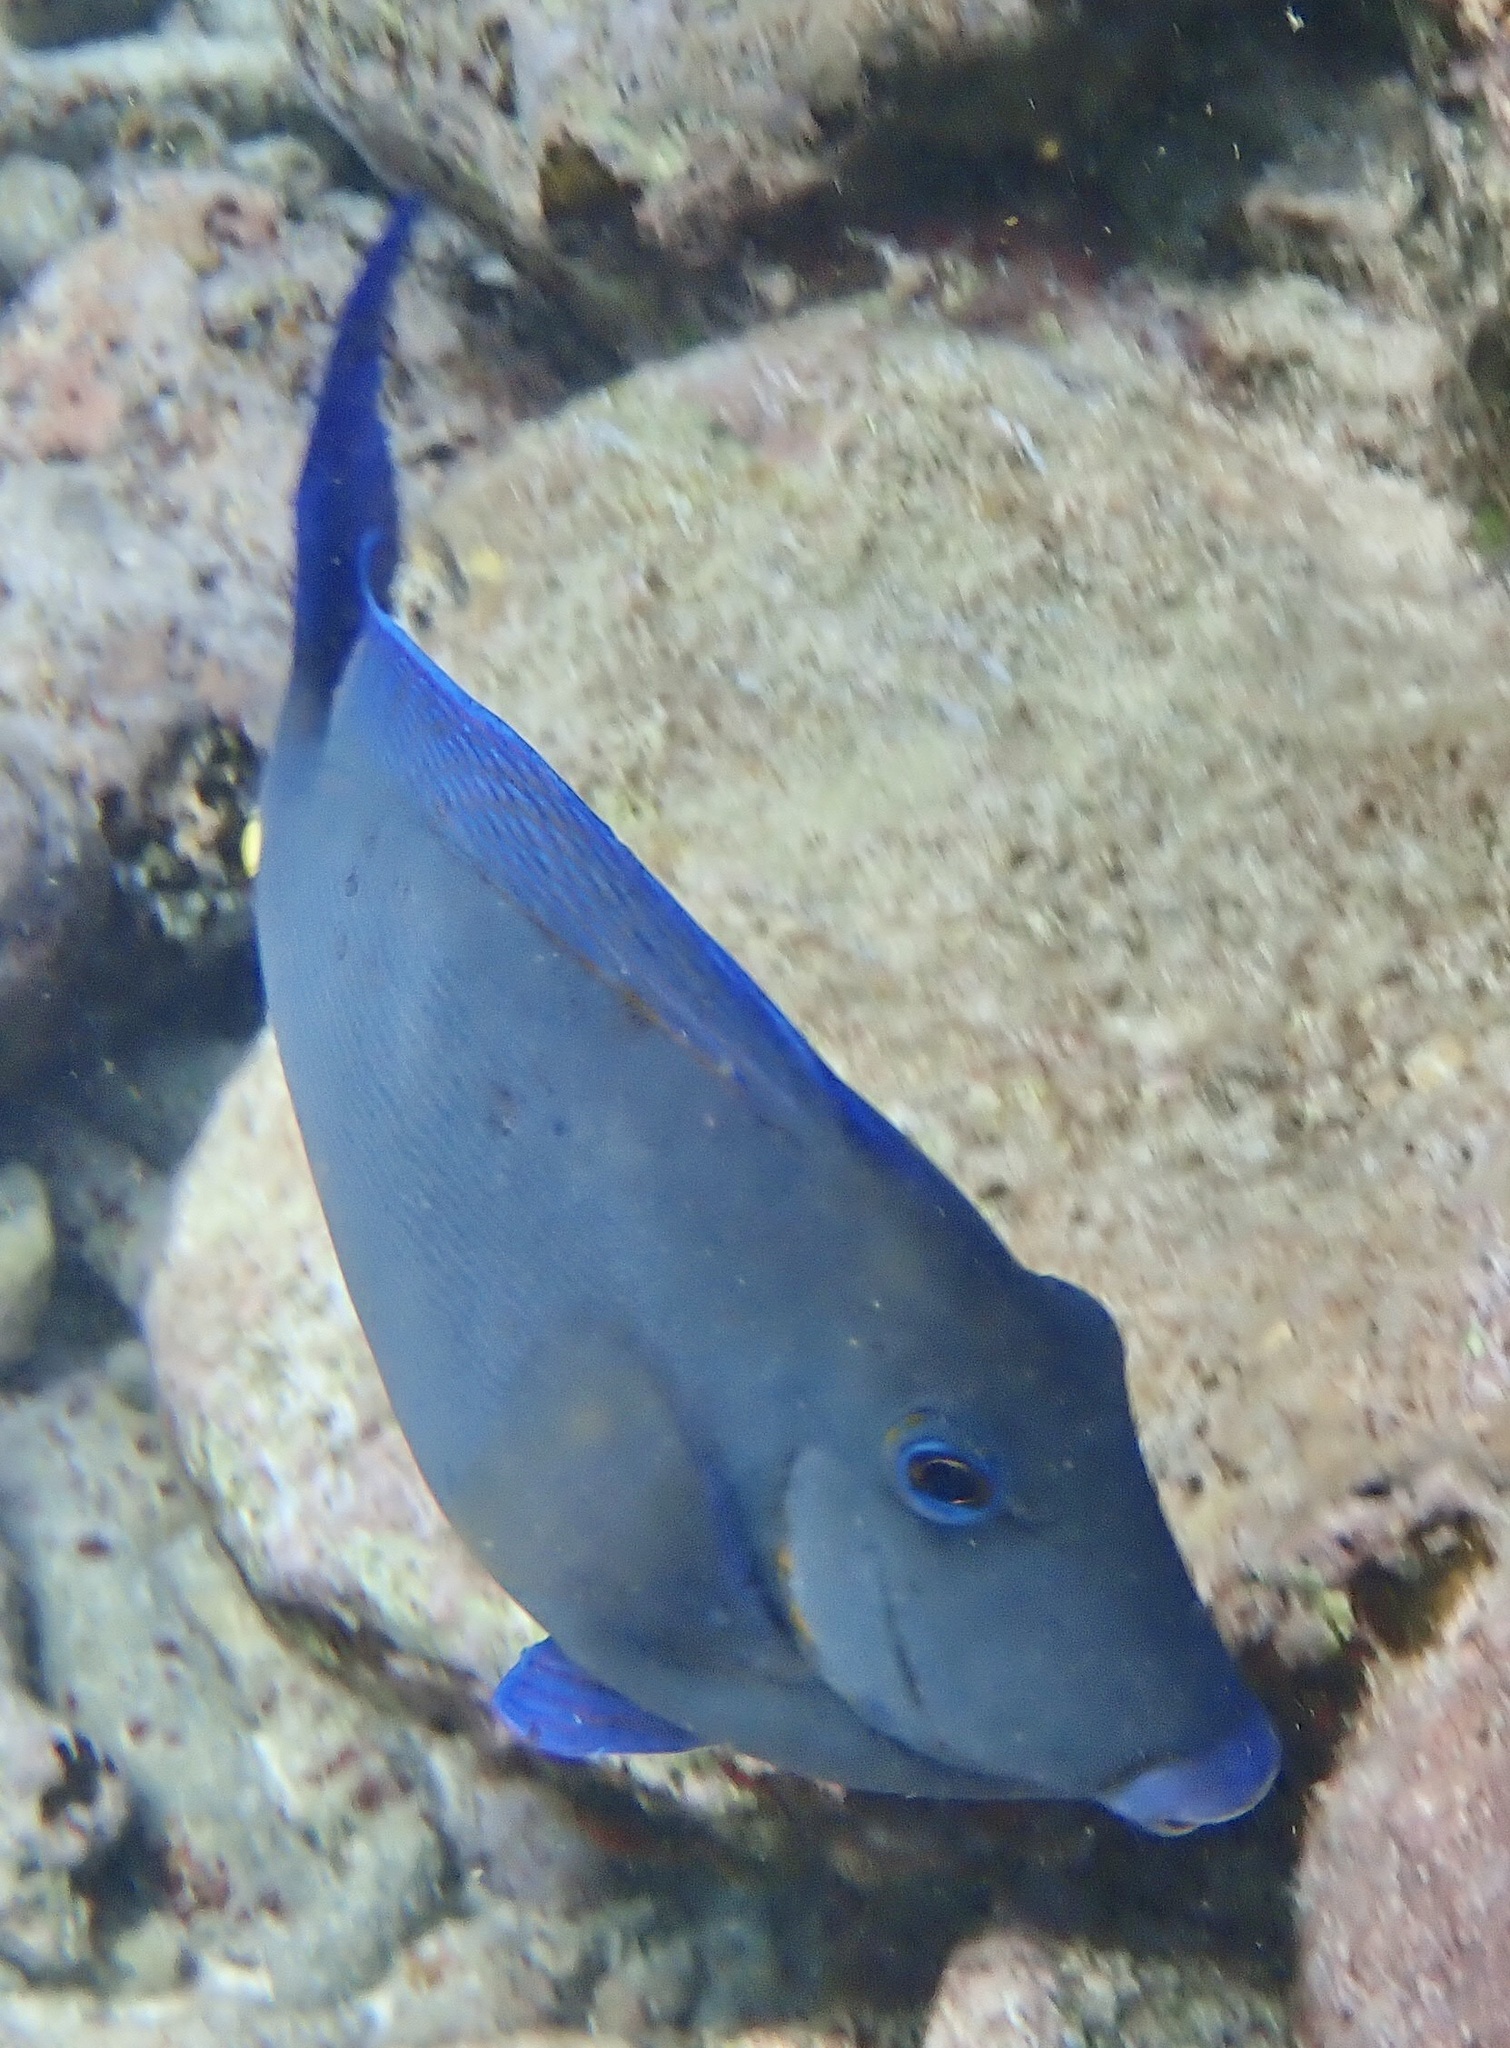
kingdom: Animalia
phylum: Chordata
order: Perciformes
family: Acanthuridae
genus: Acanthurus
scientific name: Acanthurus coeruleus
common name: Blue tang
